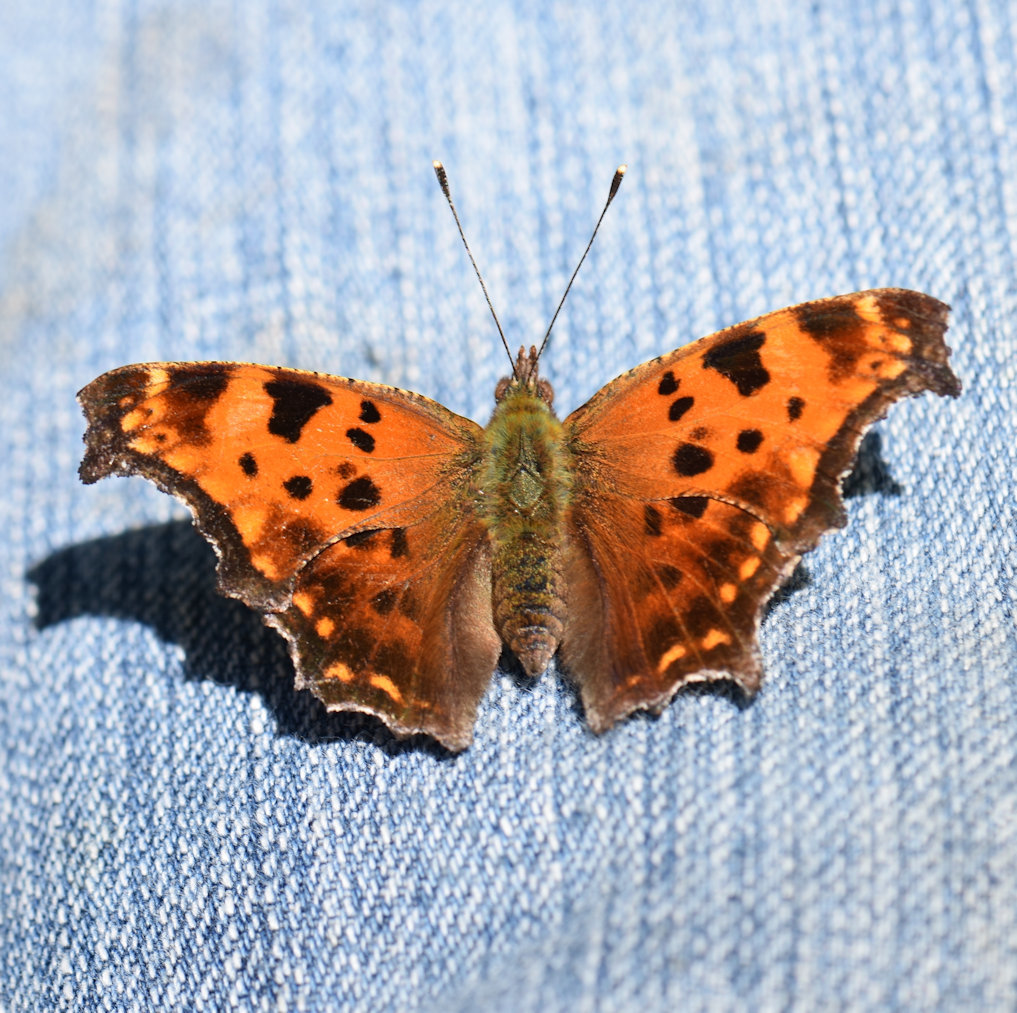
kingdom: Animalia
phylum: Arthropoda
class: Insecta
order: Lepidoptera
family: Nymphalidae
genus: Polygonia
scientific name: Polygonia comma
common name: Eastern comma
